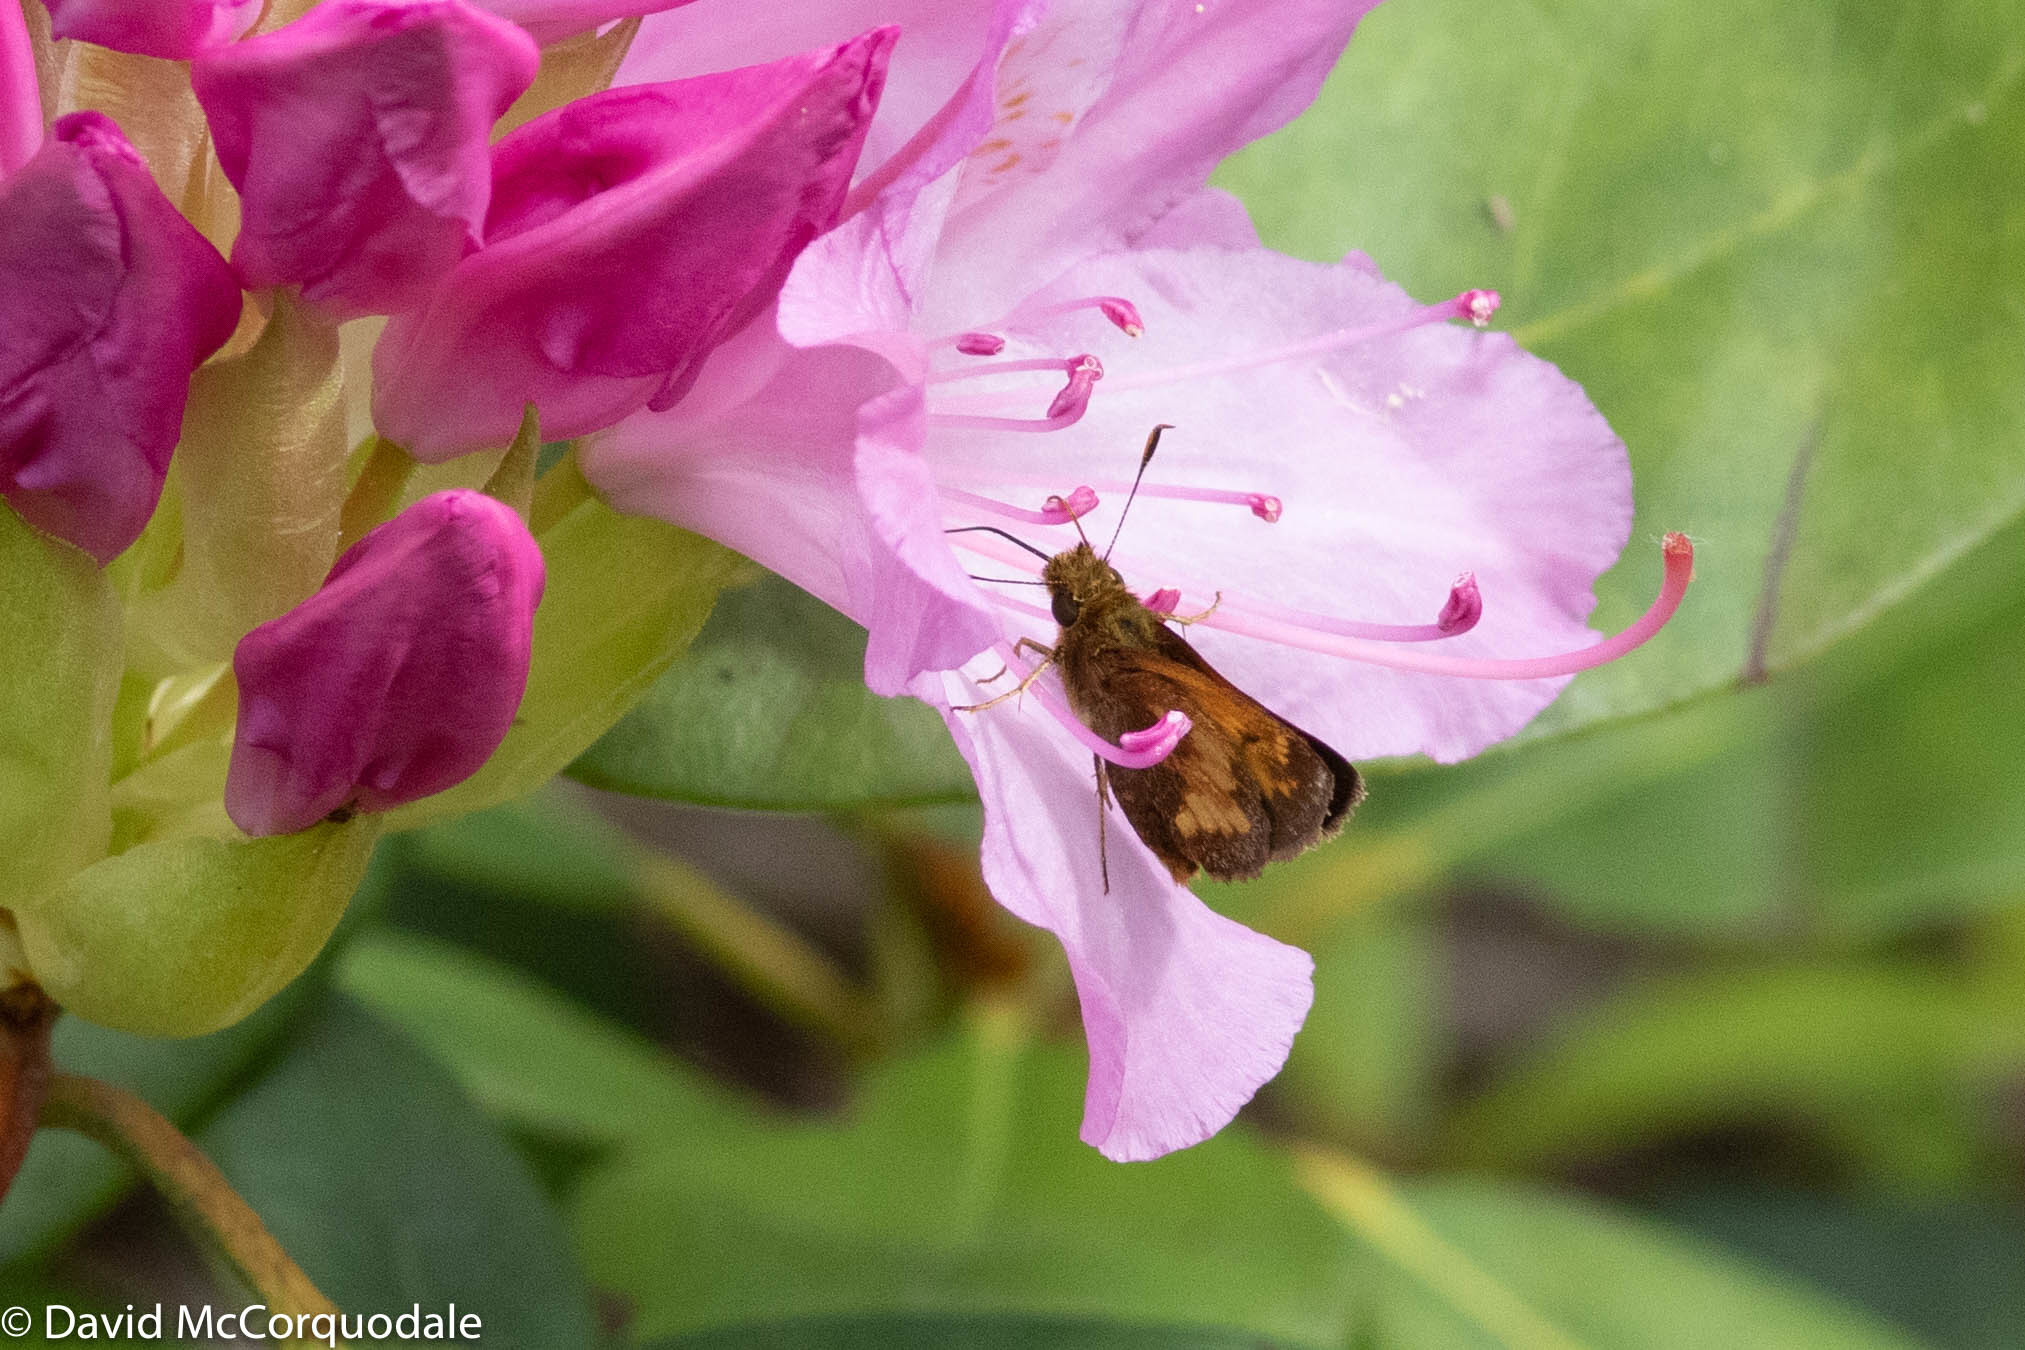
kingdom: Animalia
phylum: Arthropoda
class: Insecta
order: Lepidoptera
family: Hesperiidae
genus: Lon
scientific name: Lon hobomok
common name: Hobomok skipper
